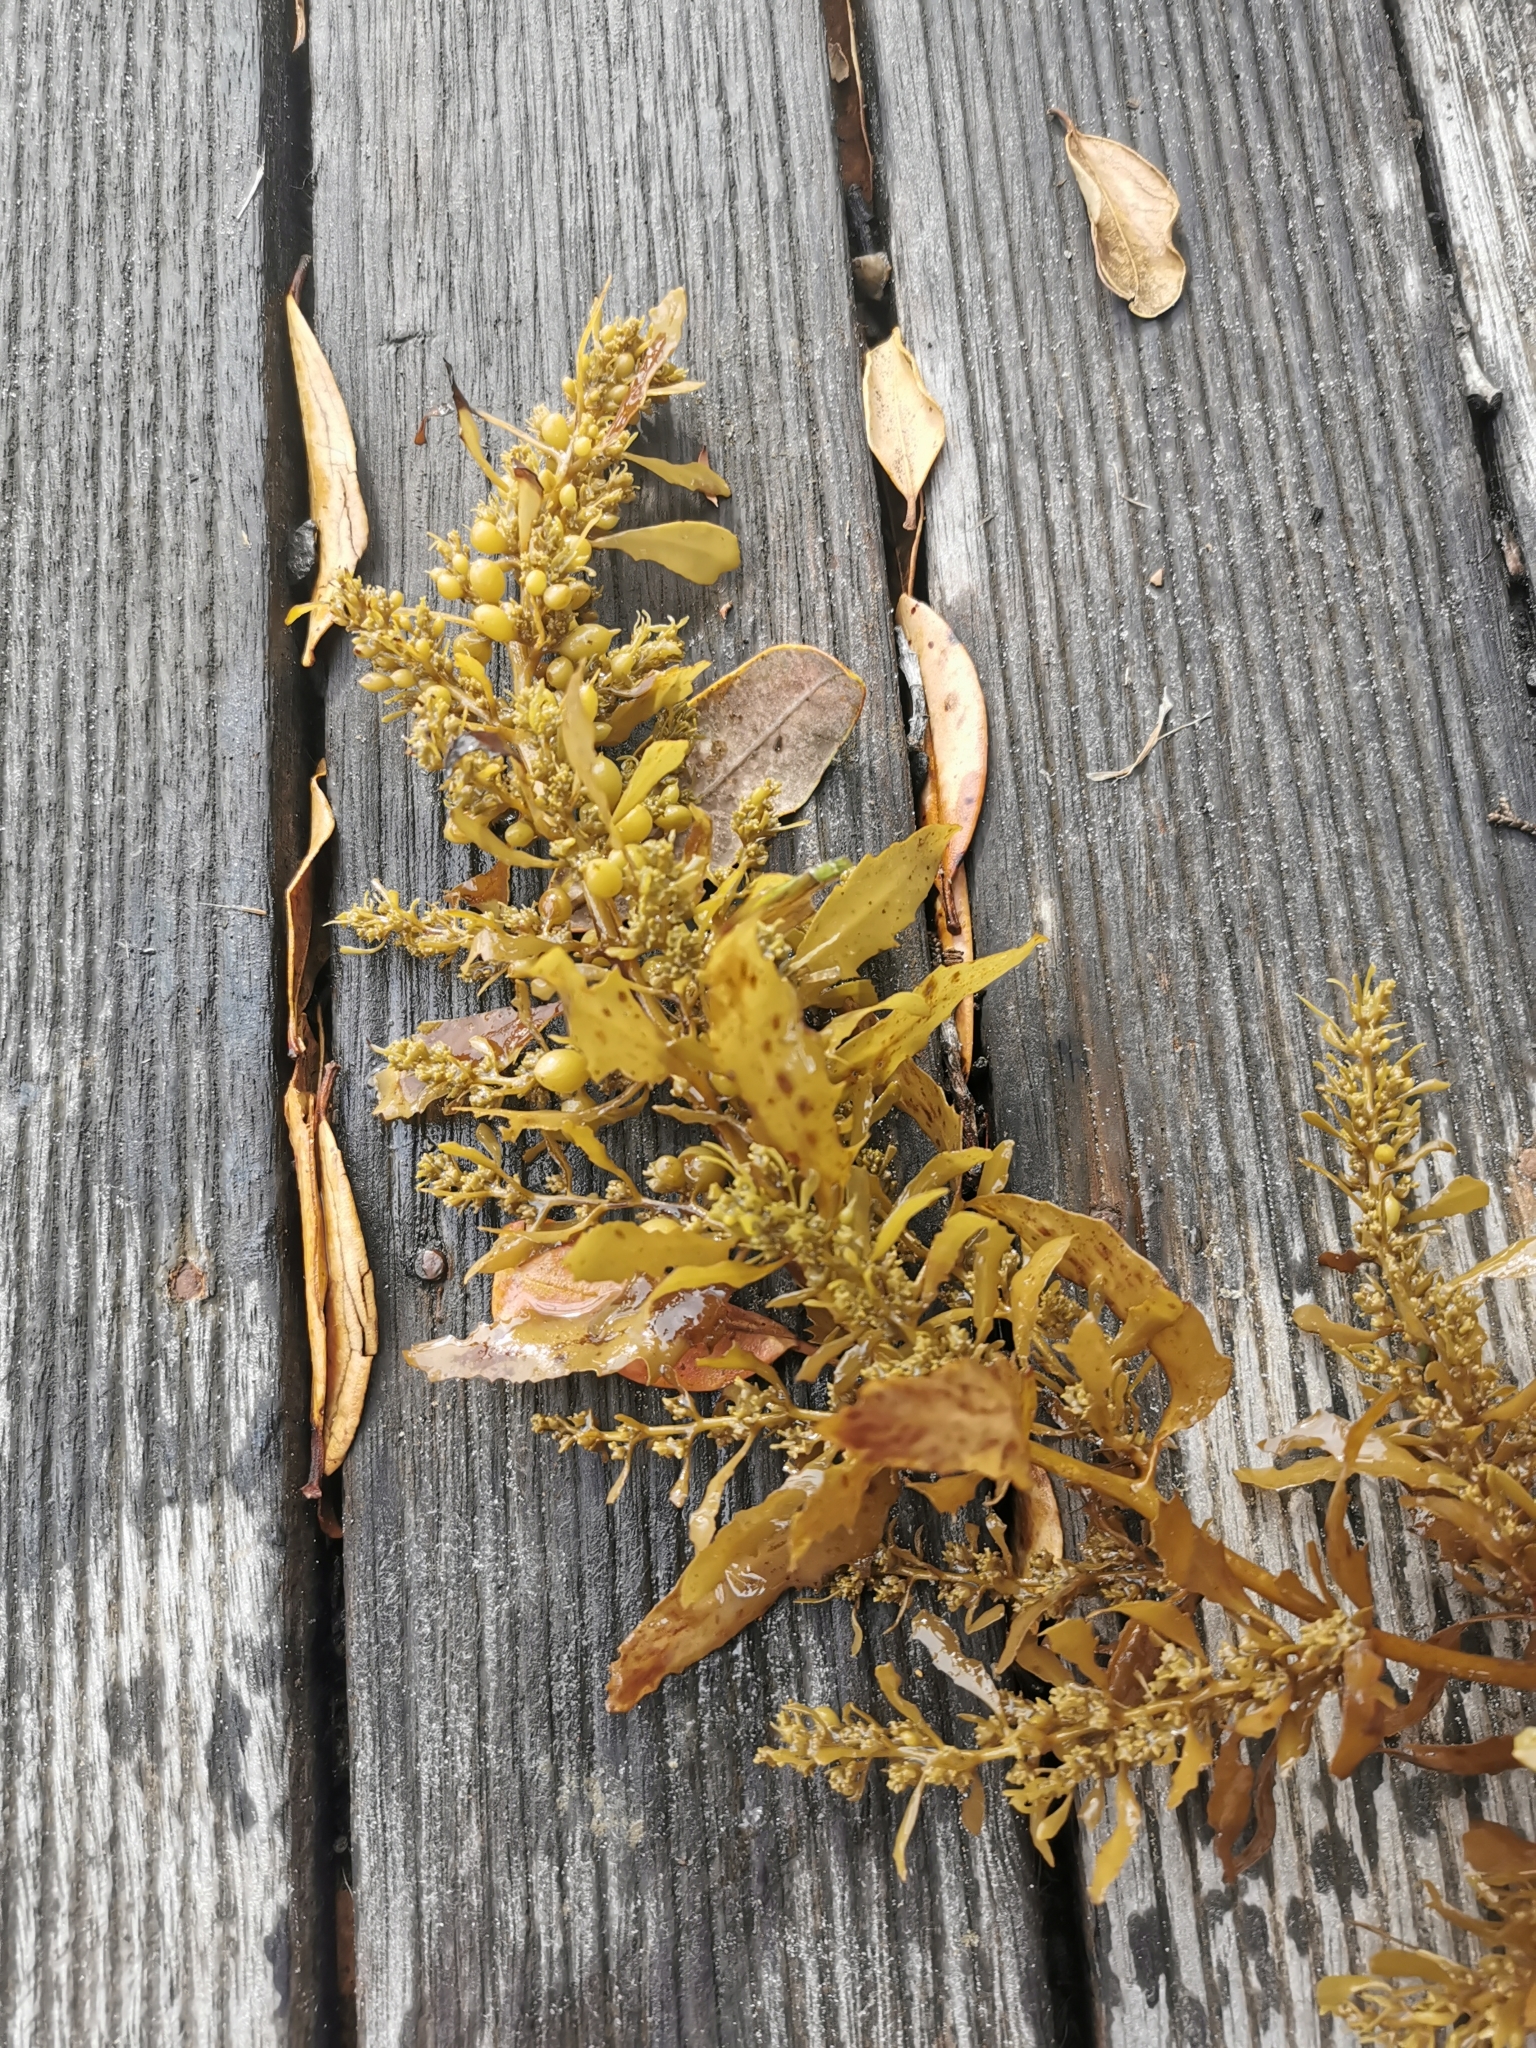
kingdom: Chromista
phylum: Ochrophyta
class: Phaeophyceae
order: Fucales
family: Sargassaceae
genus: Sargassum
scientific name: Sargassum sinclairii
